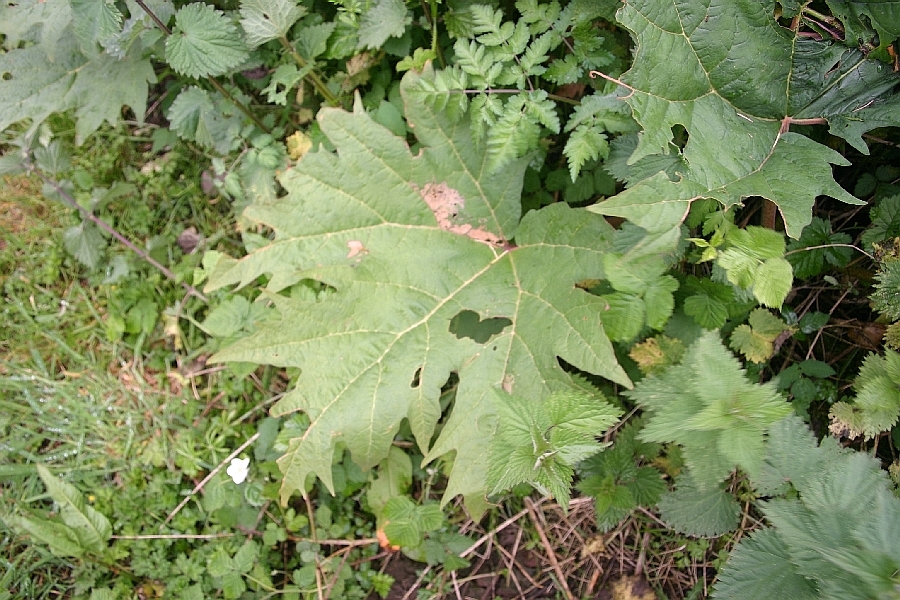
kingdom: Plantae
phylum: Tracheophyta
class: Magnoliopsida
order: Caryophyllales
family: Polygonaceae
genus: Rheum
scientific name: Rheum palmatum
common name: Ornamental rhubarb
